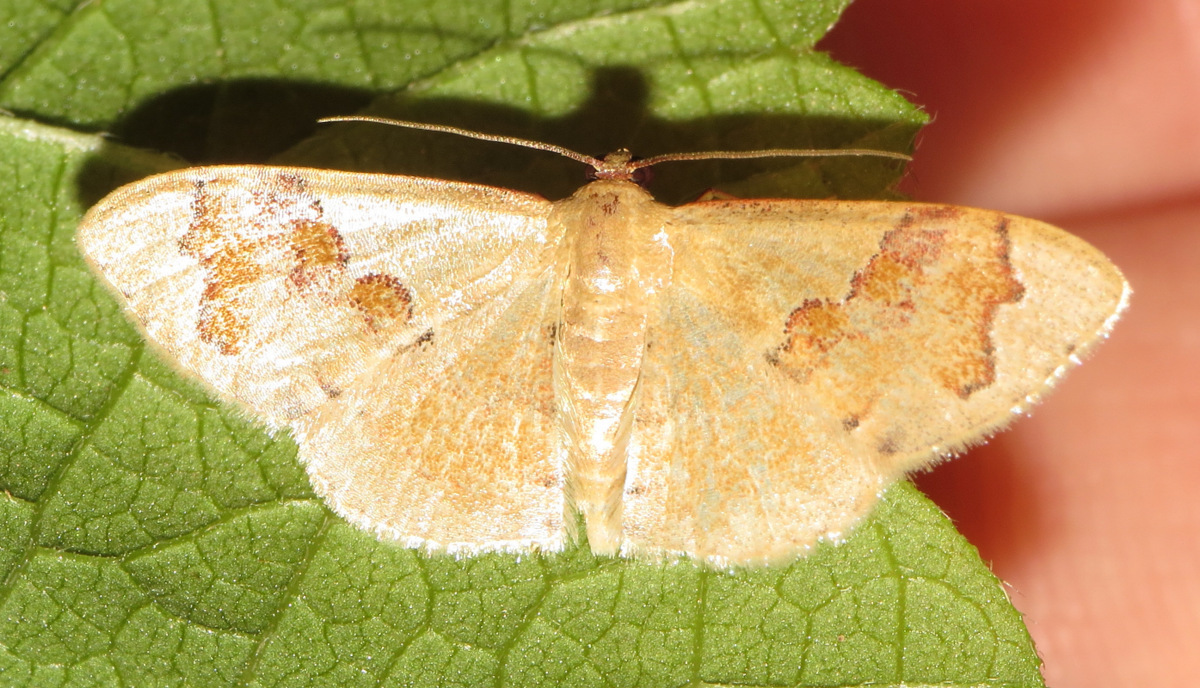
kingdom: Animalia
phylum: Arthropoda
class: Insecta
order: Lepidoptera
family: Geometridae
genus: Leptostales
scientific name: Leptostales praepeditaria
